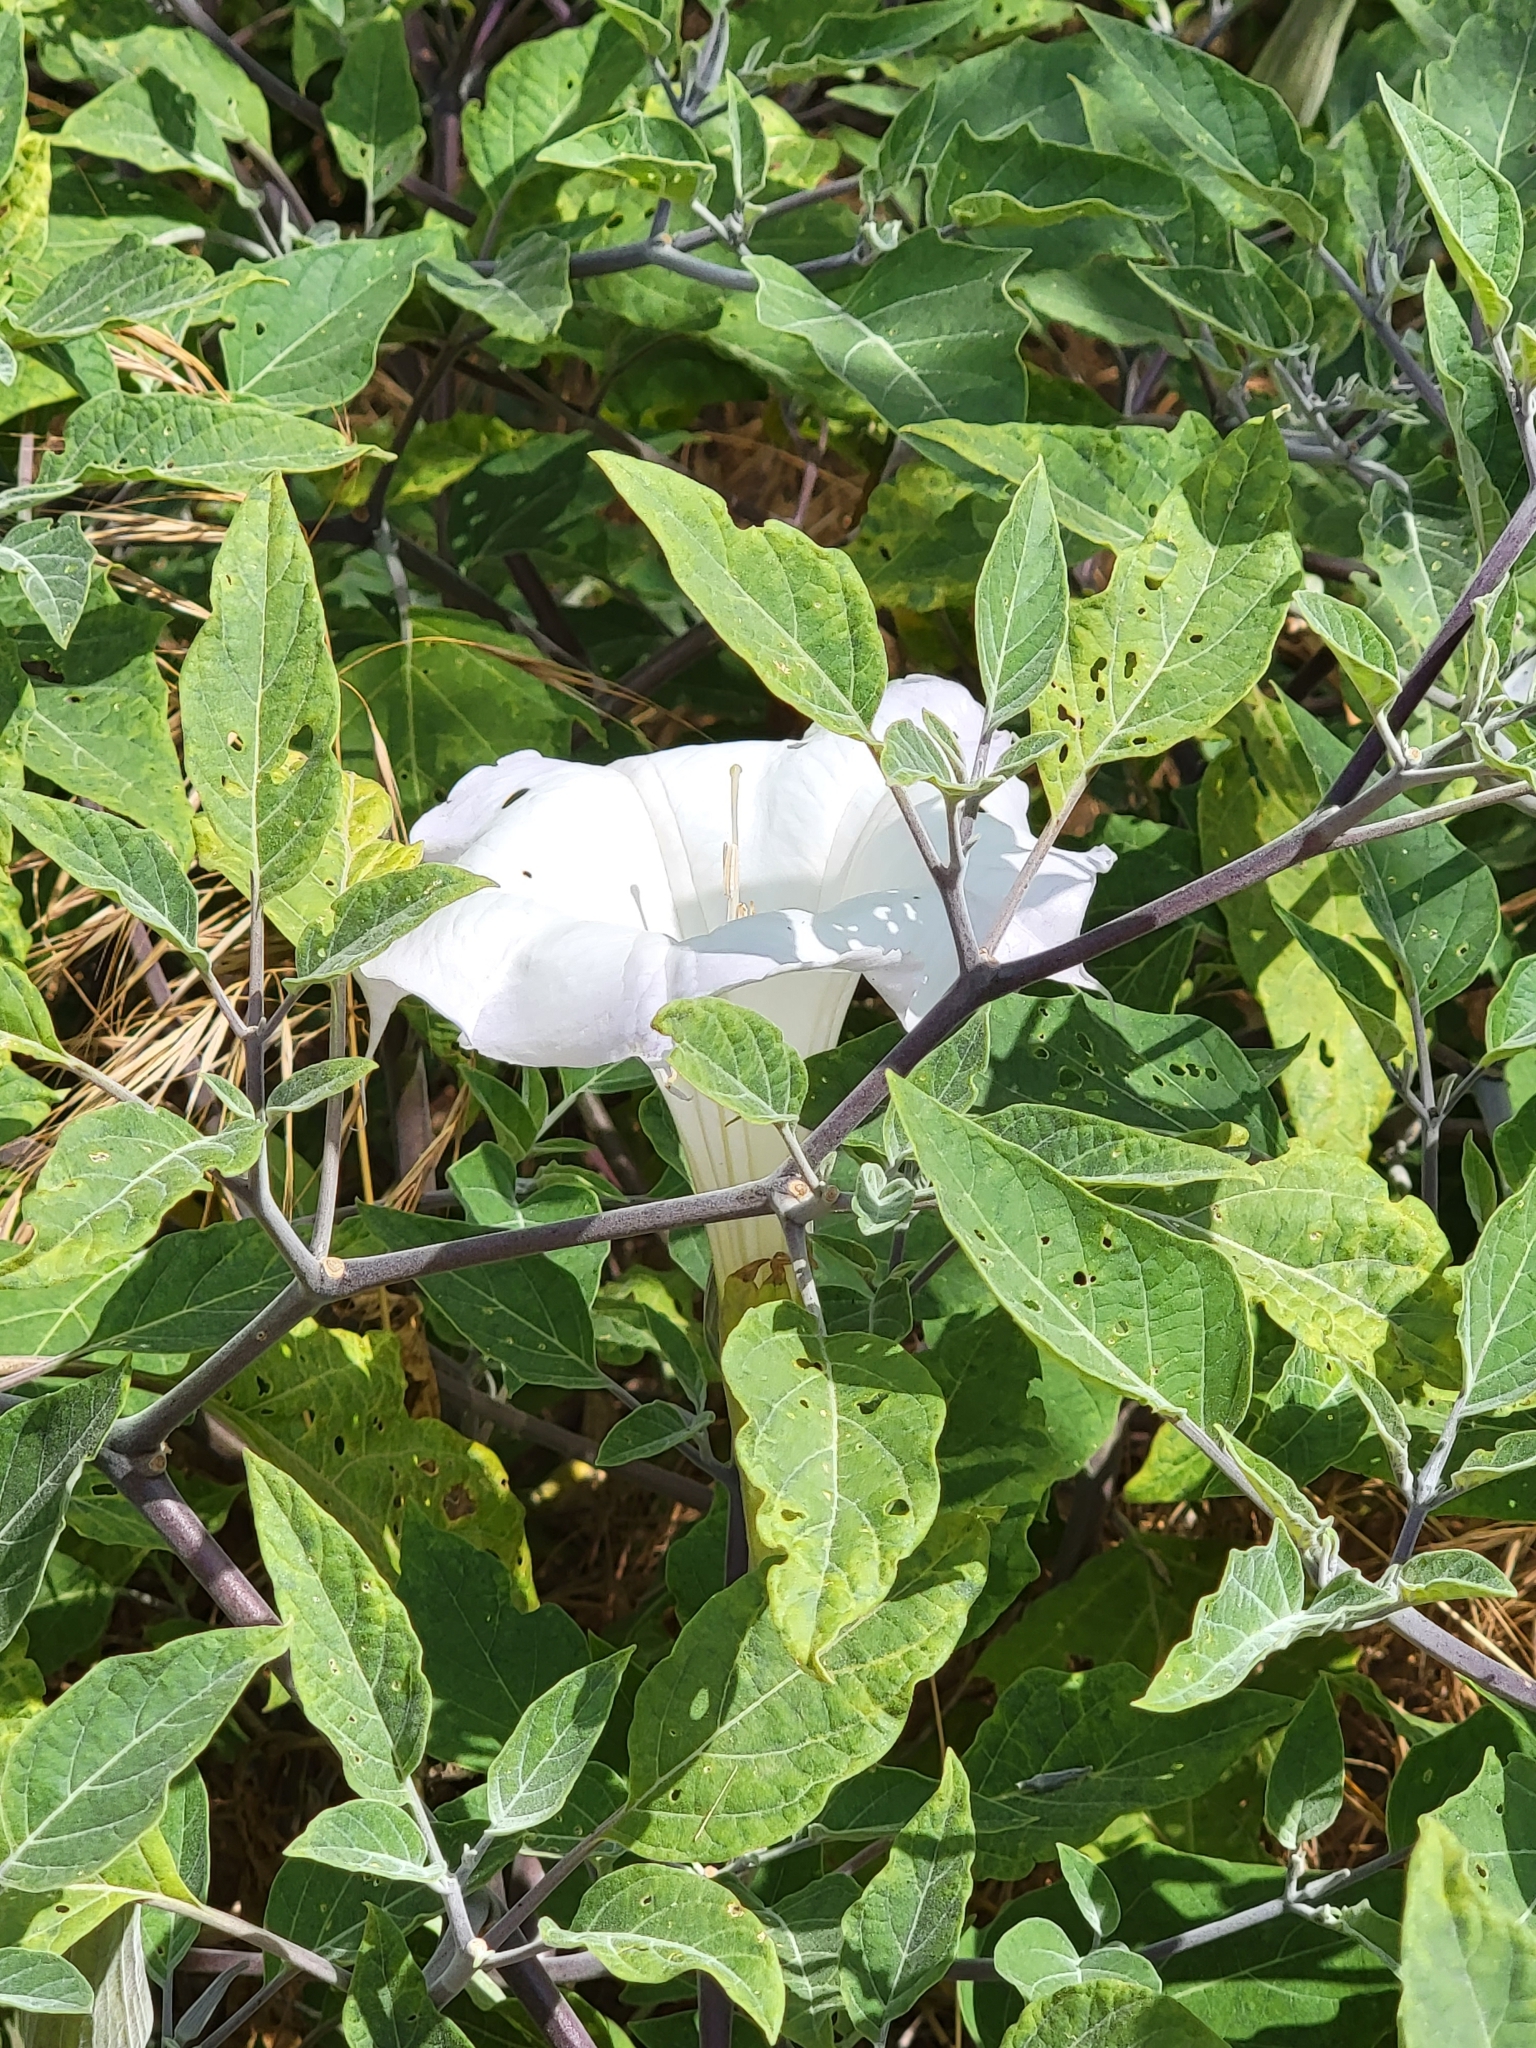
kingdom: Plantae
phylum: Tracheophyta
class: Magnoliopsida
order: Solanales
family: Solanaceae
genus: Datura
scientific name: Datura wrightii
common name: Sacred thorn-apple
